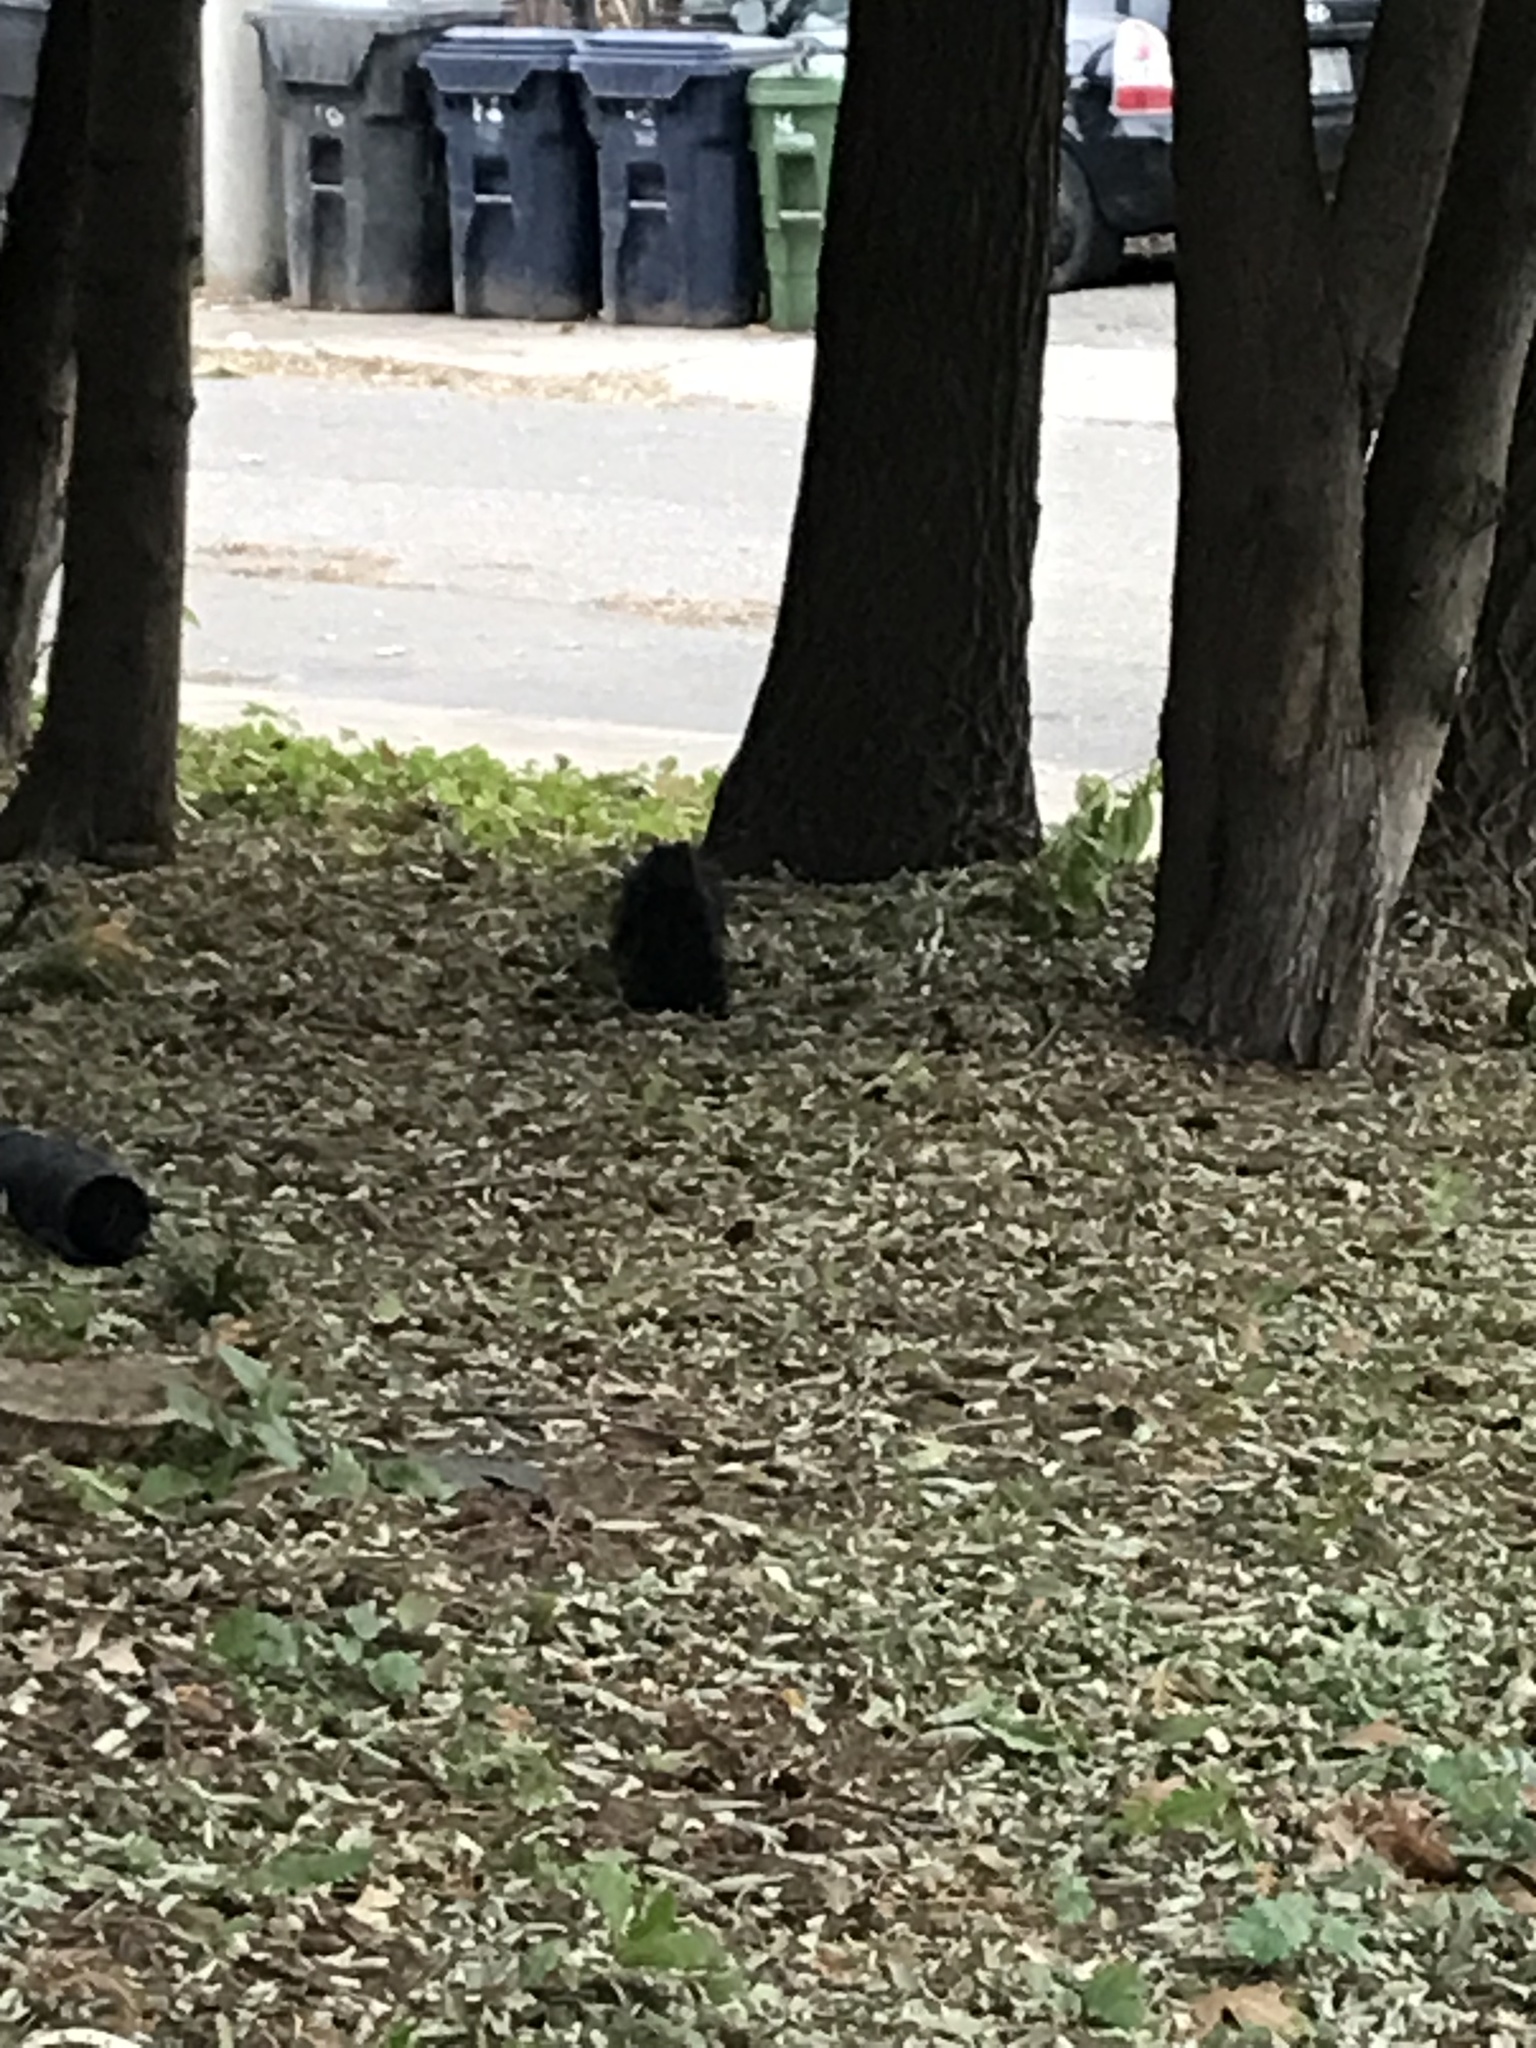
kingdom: Animalia
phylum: Chordata
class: Mammalia
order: Rodentia
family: Sciuridae
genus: Sciurus
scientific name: Sciurus carolinensis
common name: Eastern gray squirrel
